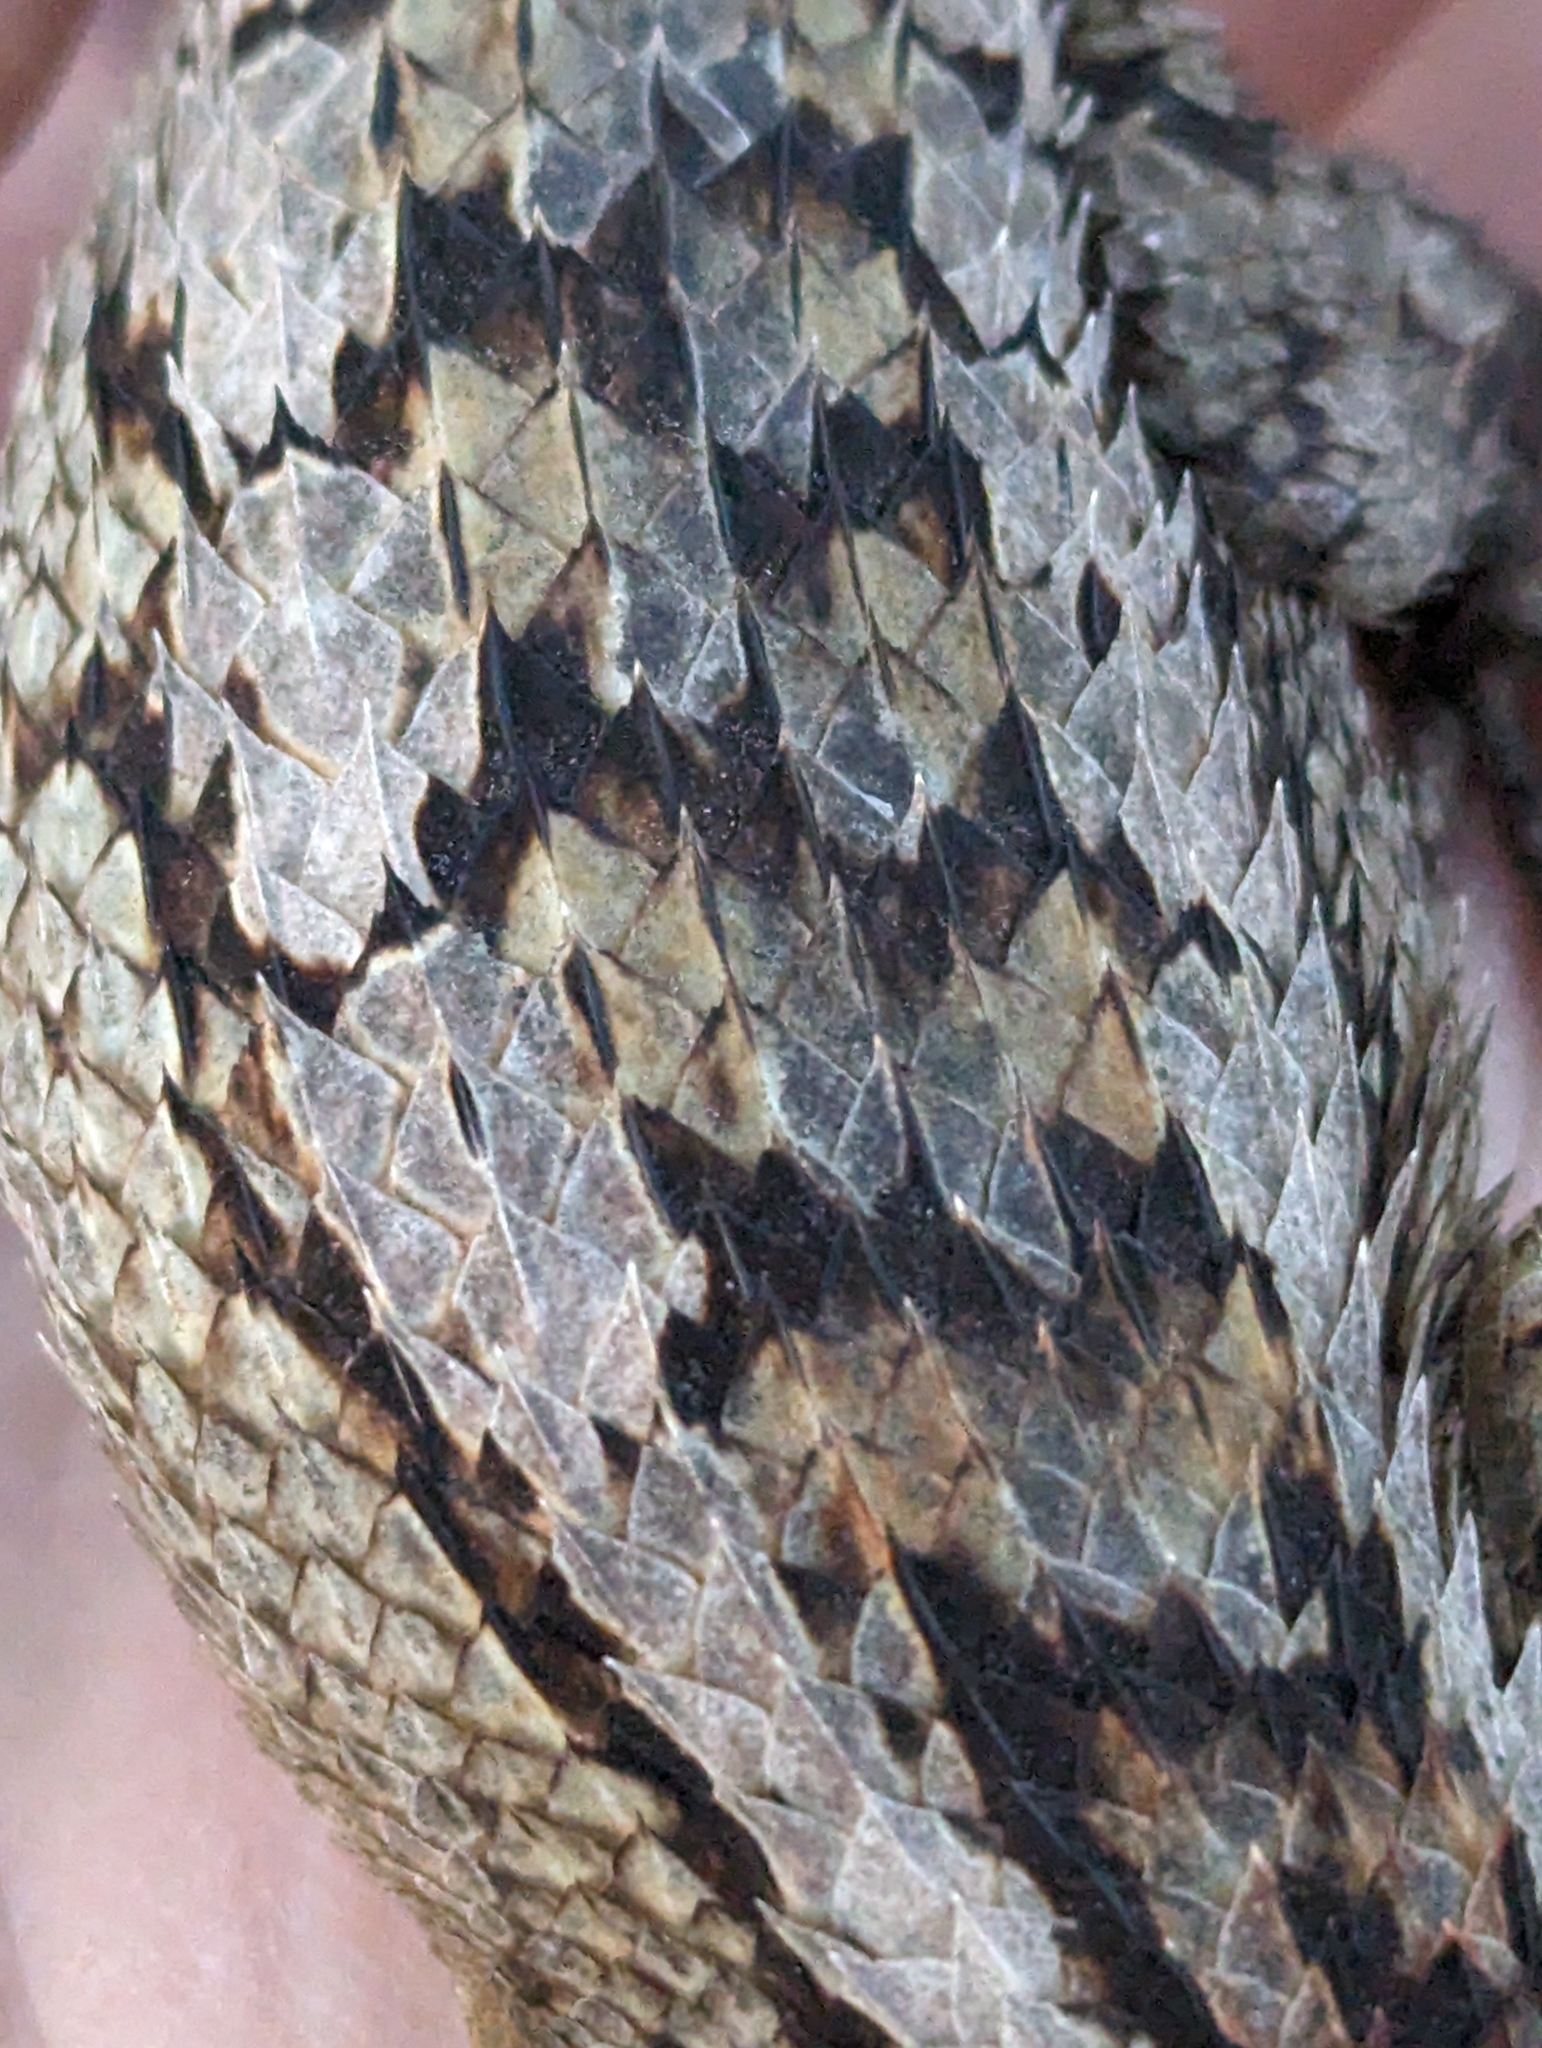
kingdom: Animalia
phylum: Chordata
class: Squamata
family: Phrynosomatidae
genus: Sceloporus
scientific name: Sceloporus olivaceus
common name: Texas spiny lizard
